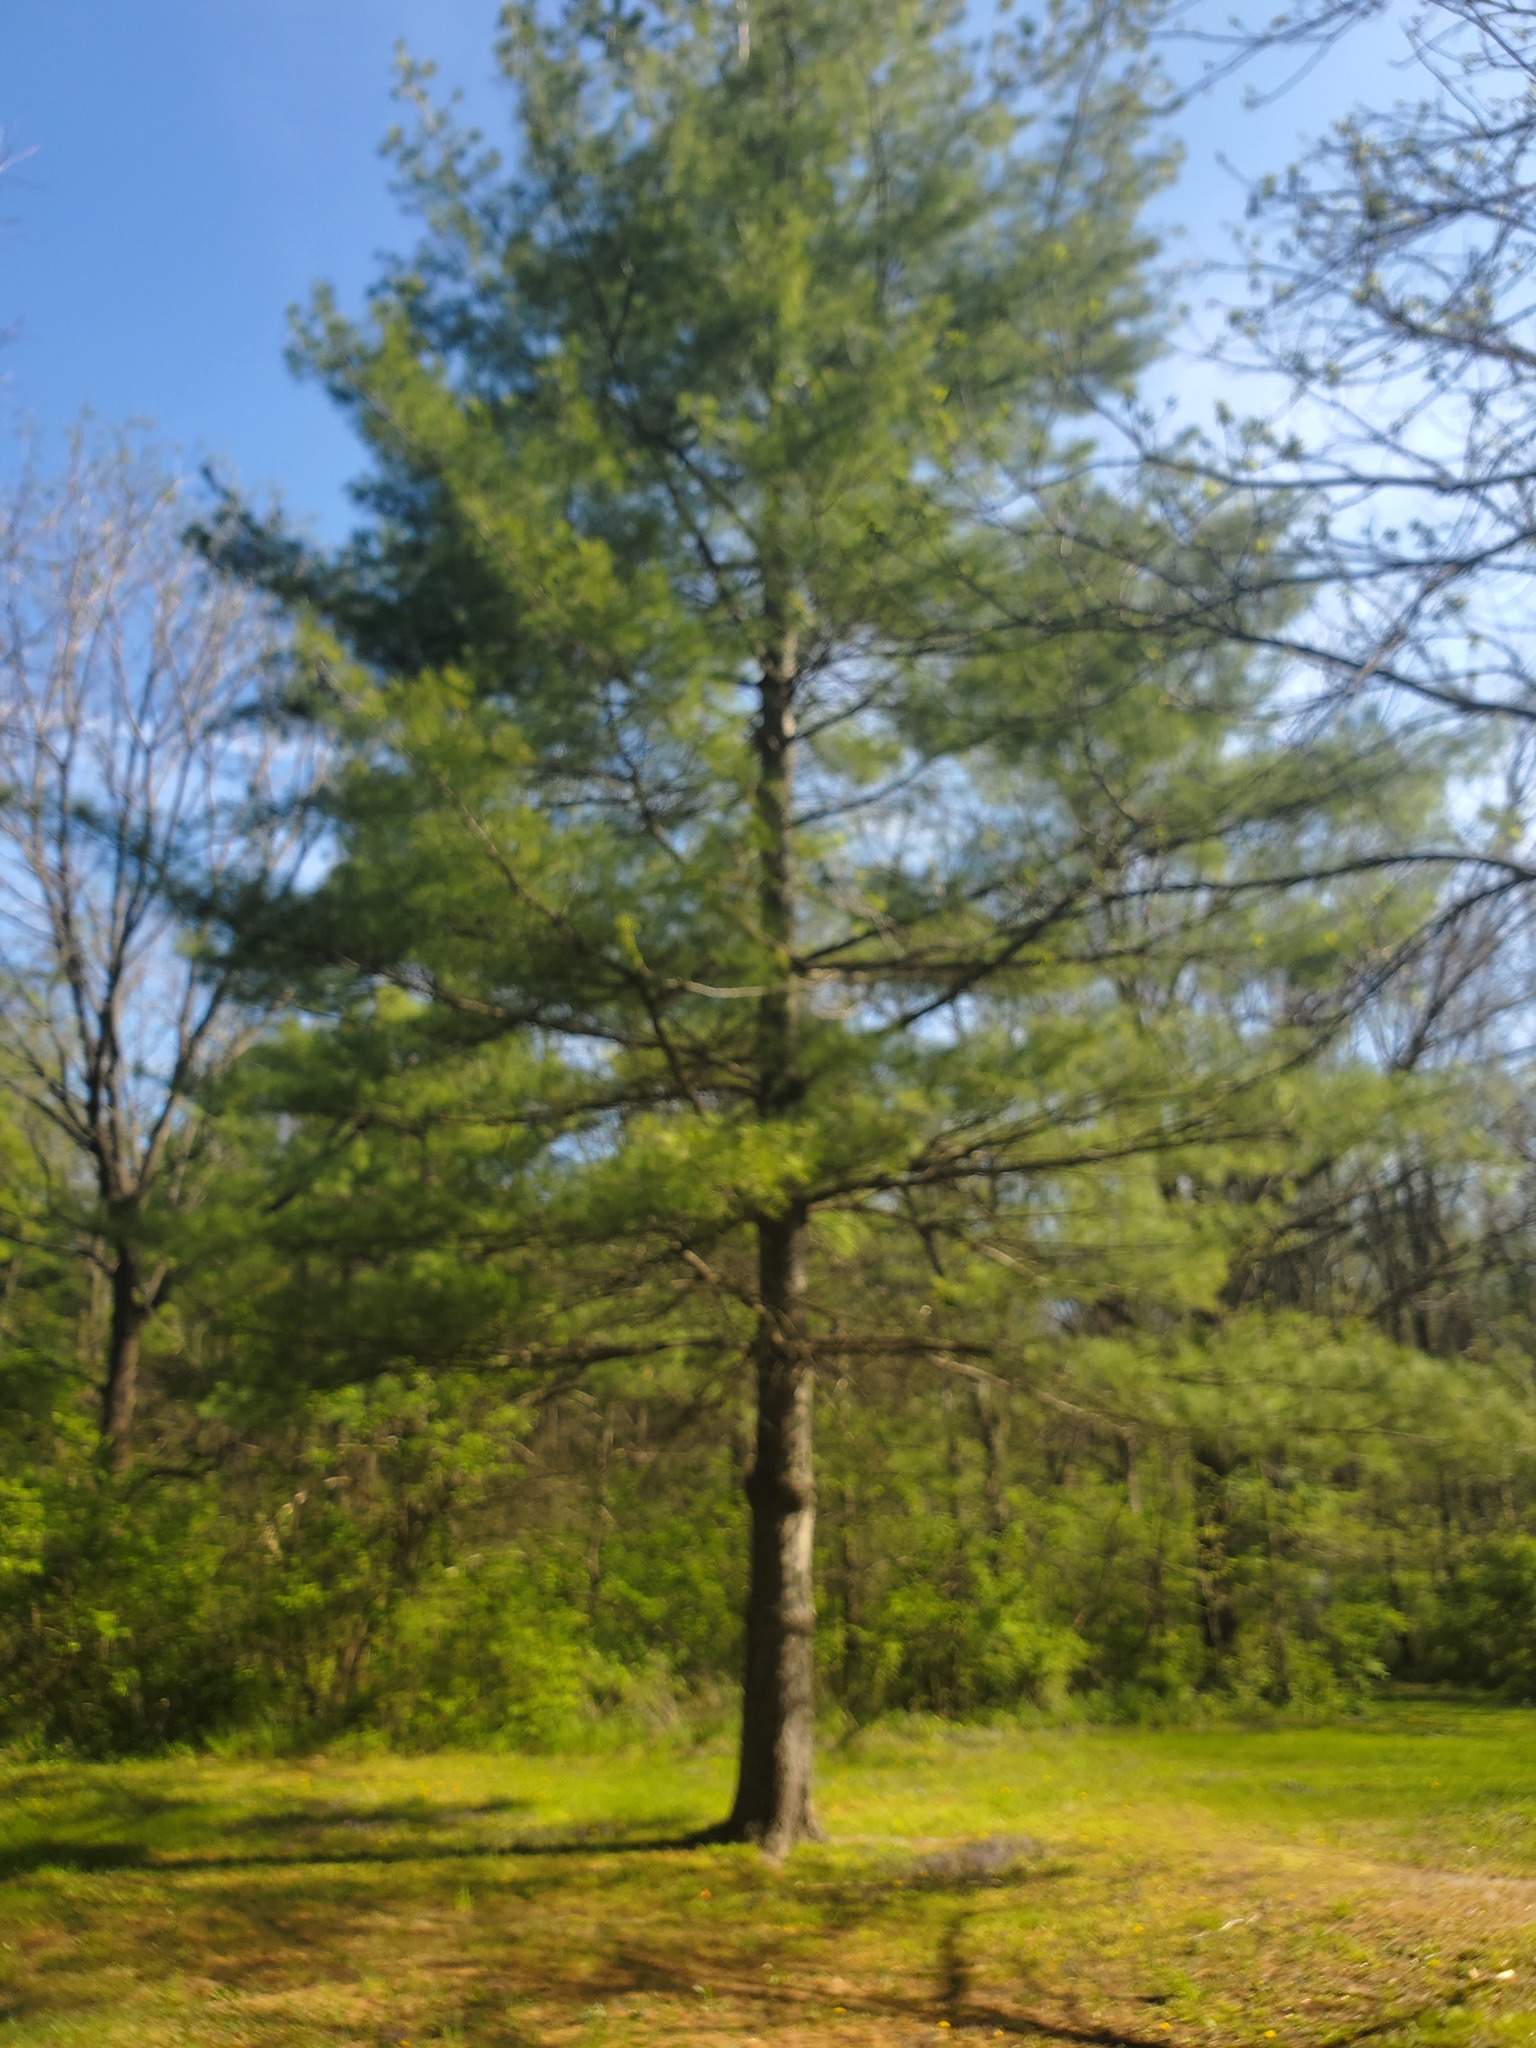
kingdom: Plantae
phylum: Tracheophyta
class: Pinopsida
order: Pinales
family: Pinaceae
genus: Pinus
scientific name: Pinus strobus
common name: Weymouth pine
